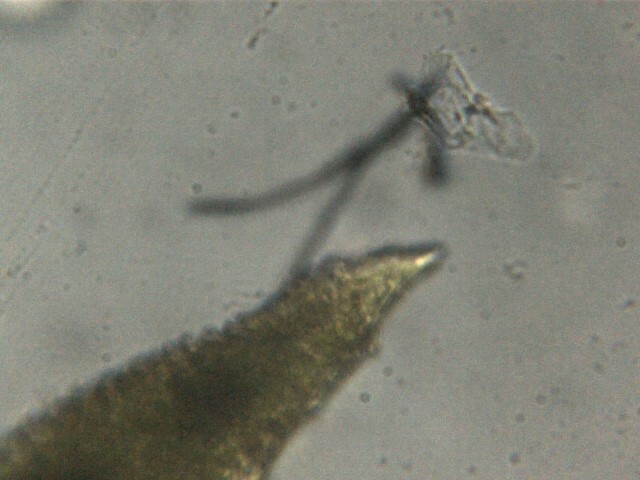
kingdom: Plantae
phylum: Bryophyta
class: Bryopsida
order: Pottiales
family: Pottiaceae
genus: Tortella
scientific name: Tortella inclinata
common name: Inclined twisted moss
